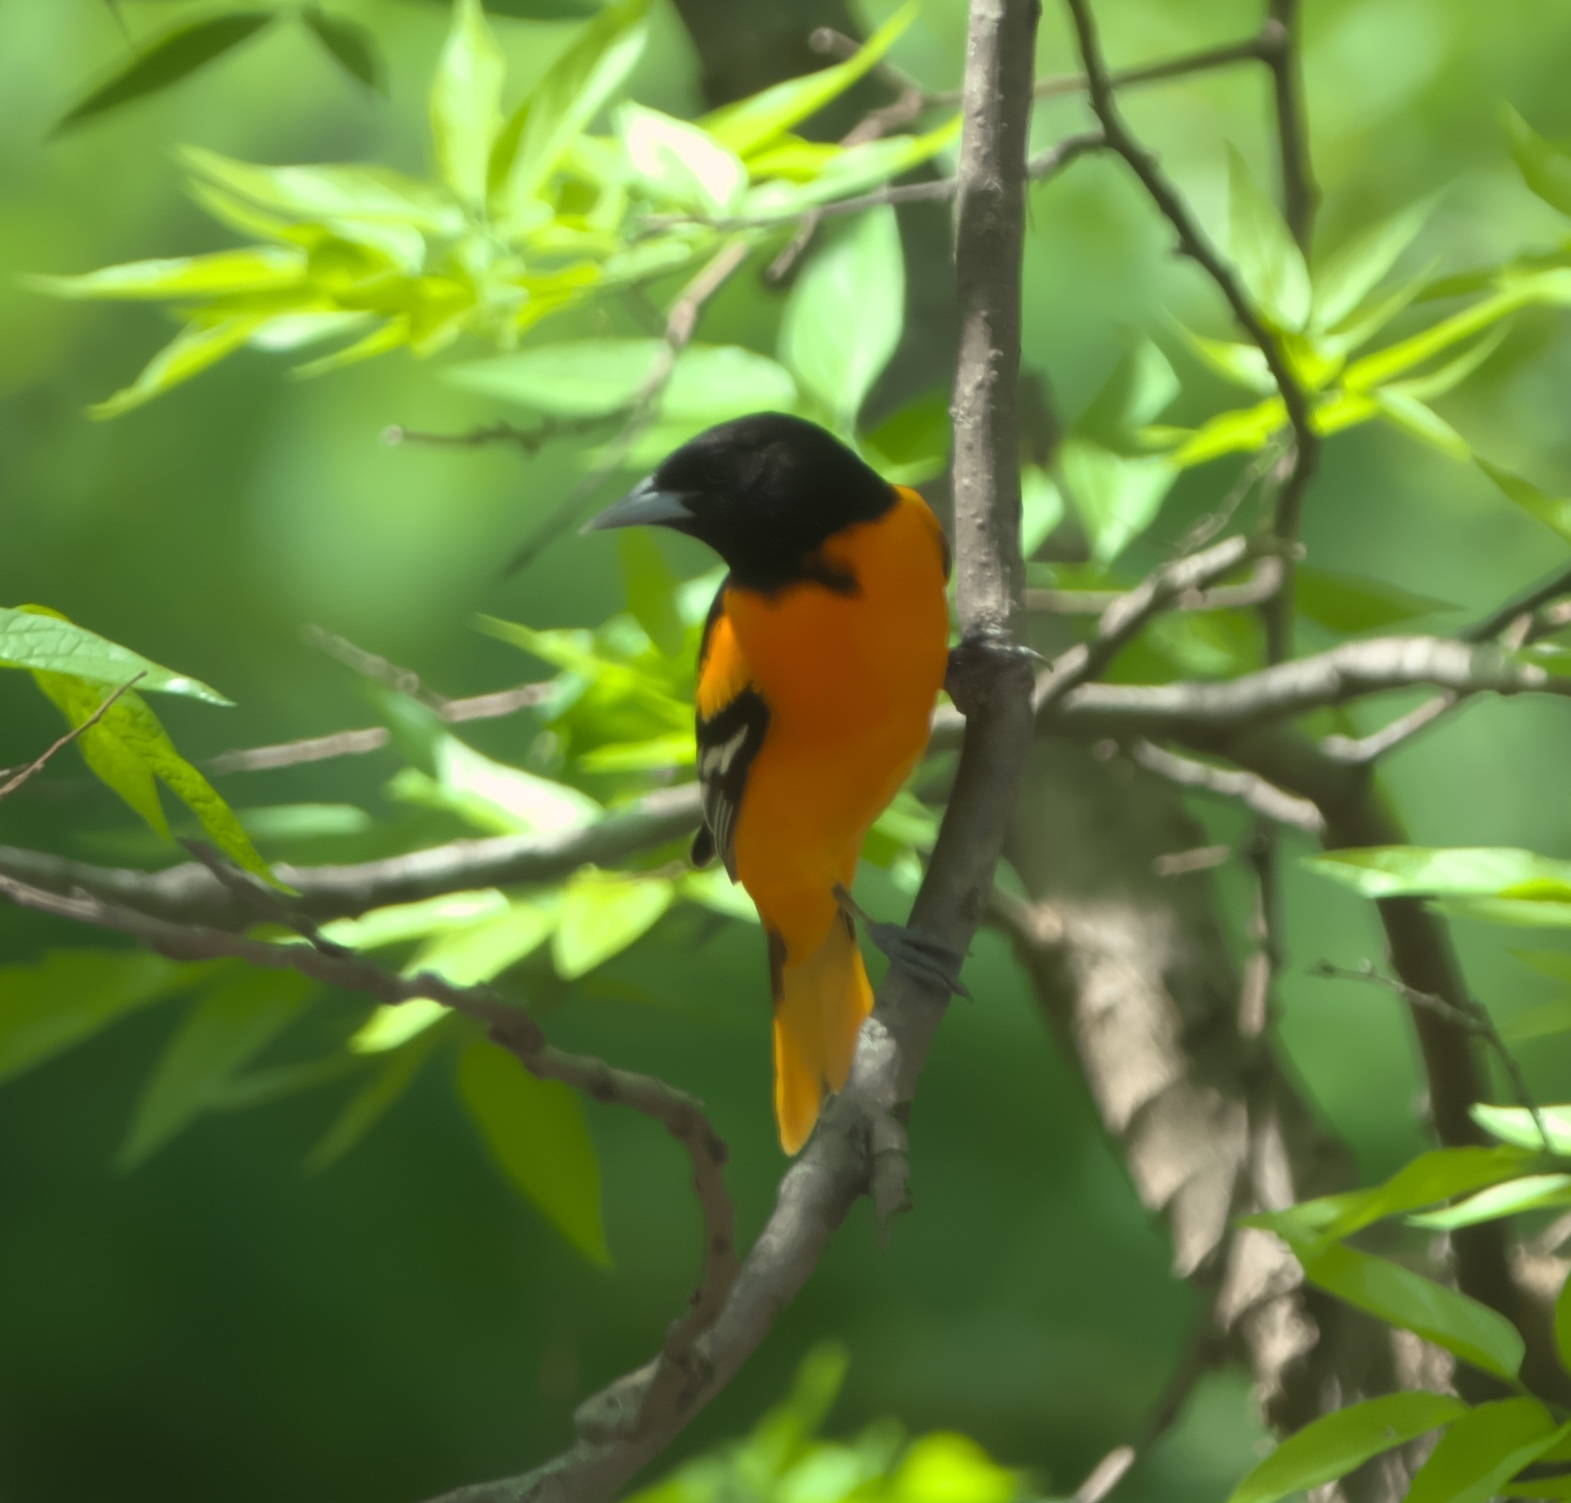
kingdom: Animalia
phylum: Chordata
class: Aves
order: Passeriformes
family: Icteridae
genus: Icterus
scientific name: Icterus galbula
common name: Baltimore oriole
